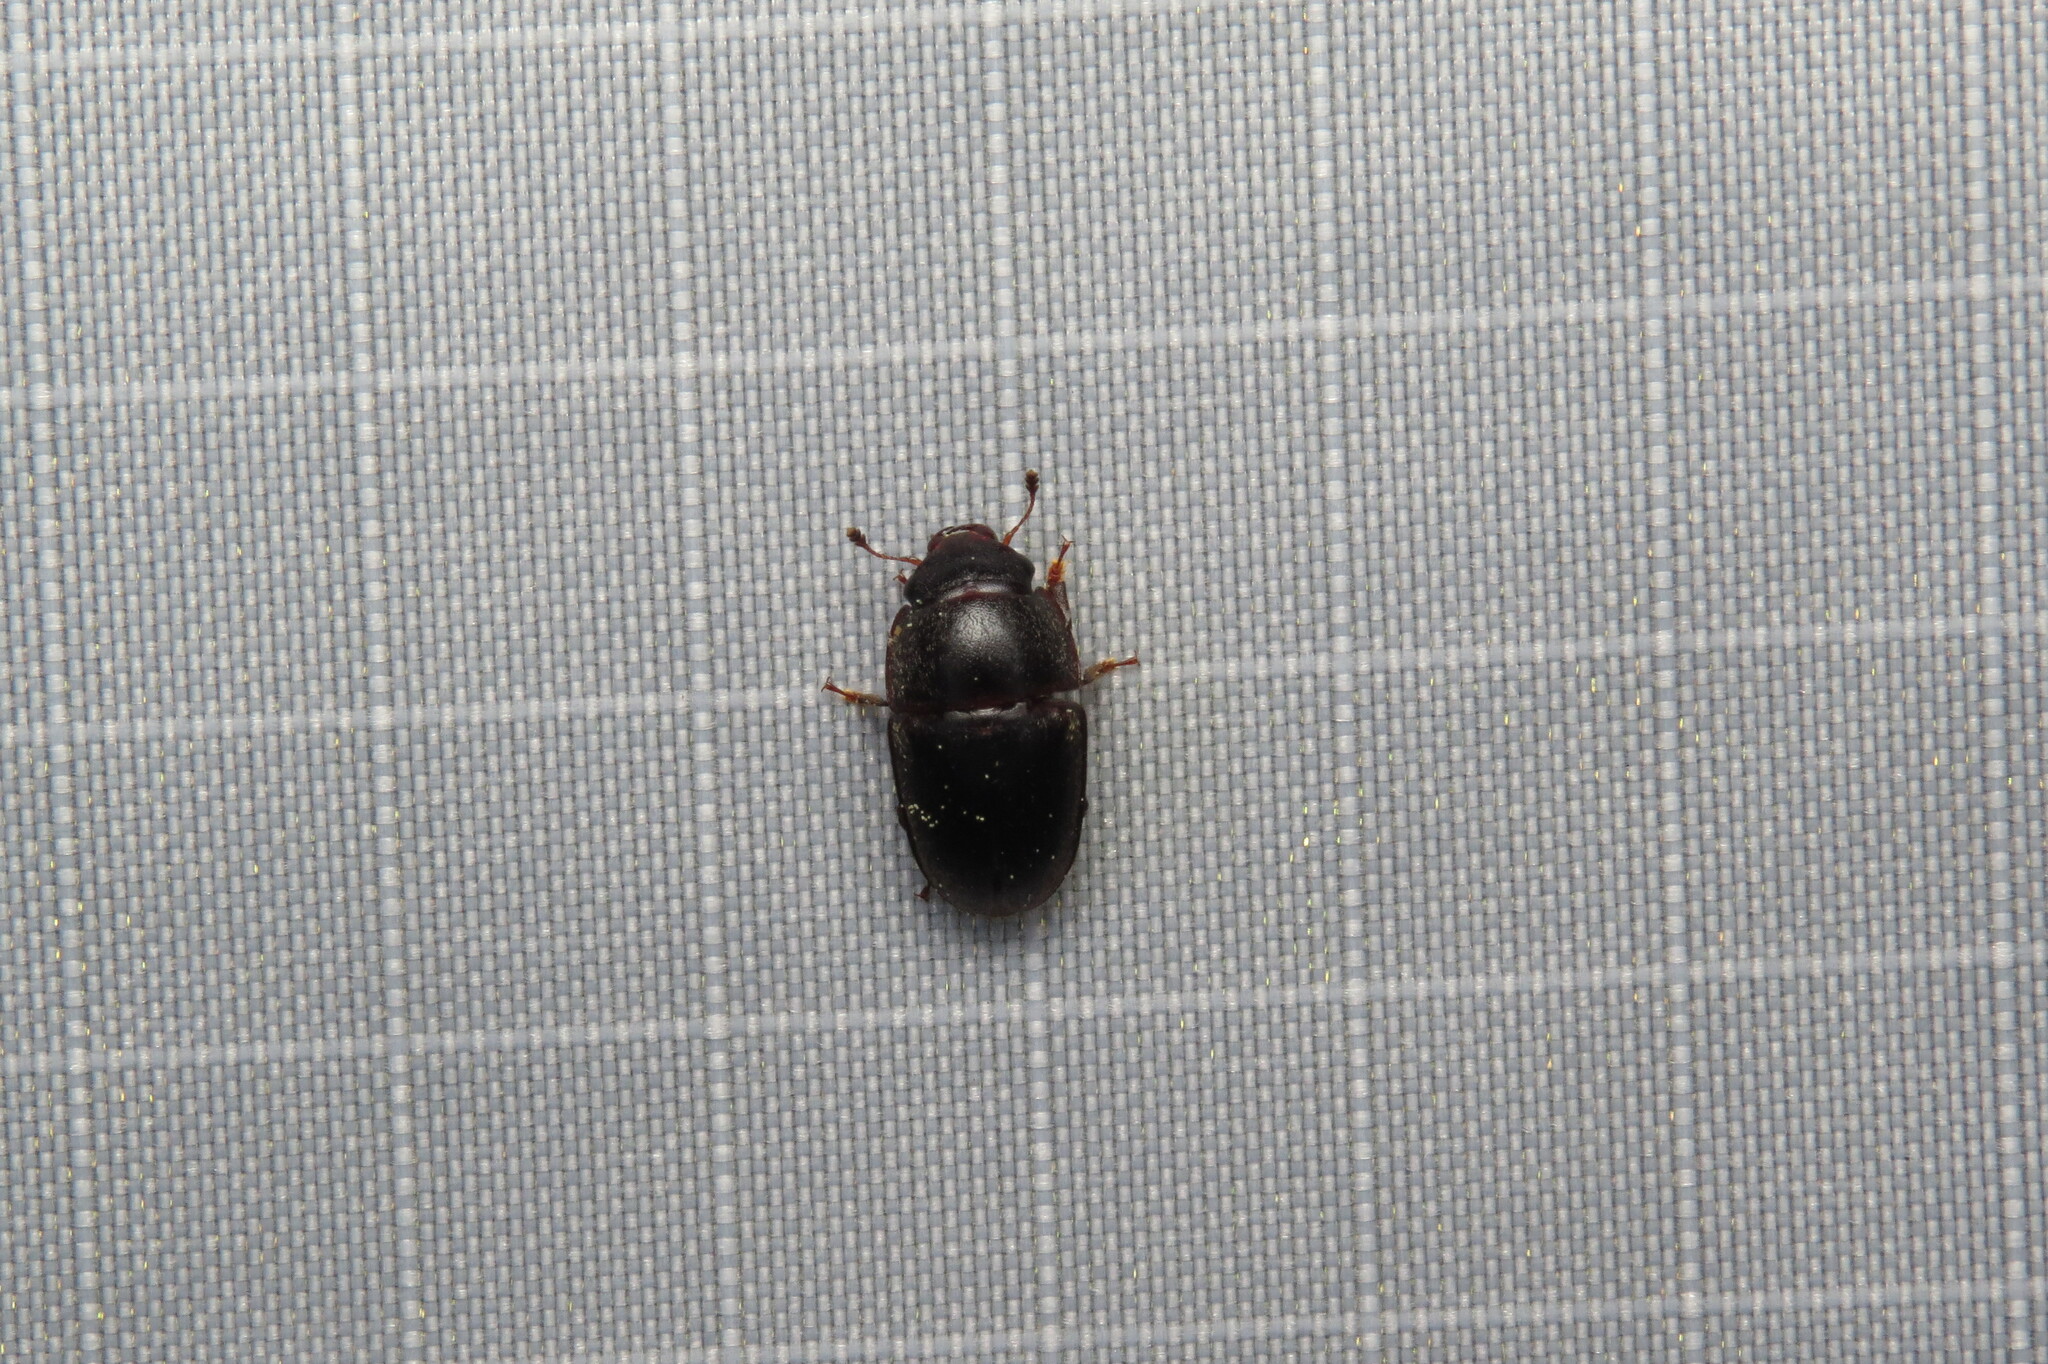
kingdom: Animalia
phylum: Arthropoda
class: Insecta
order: Coleoptera
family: Nitidulidae
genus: Cryptarcha
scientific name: Cryptarcha ampla
